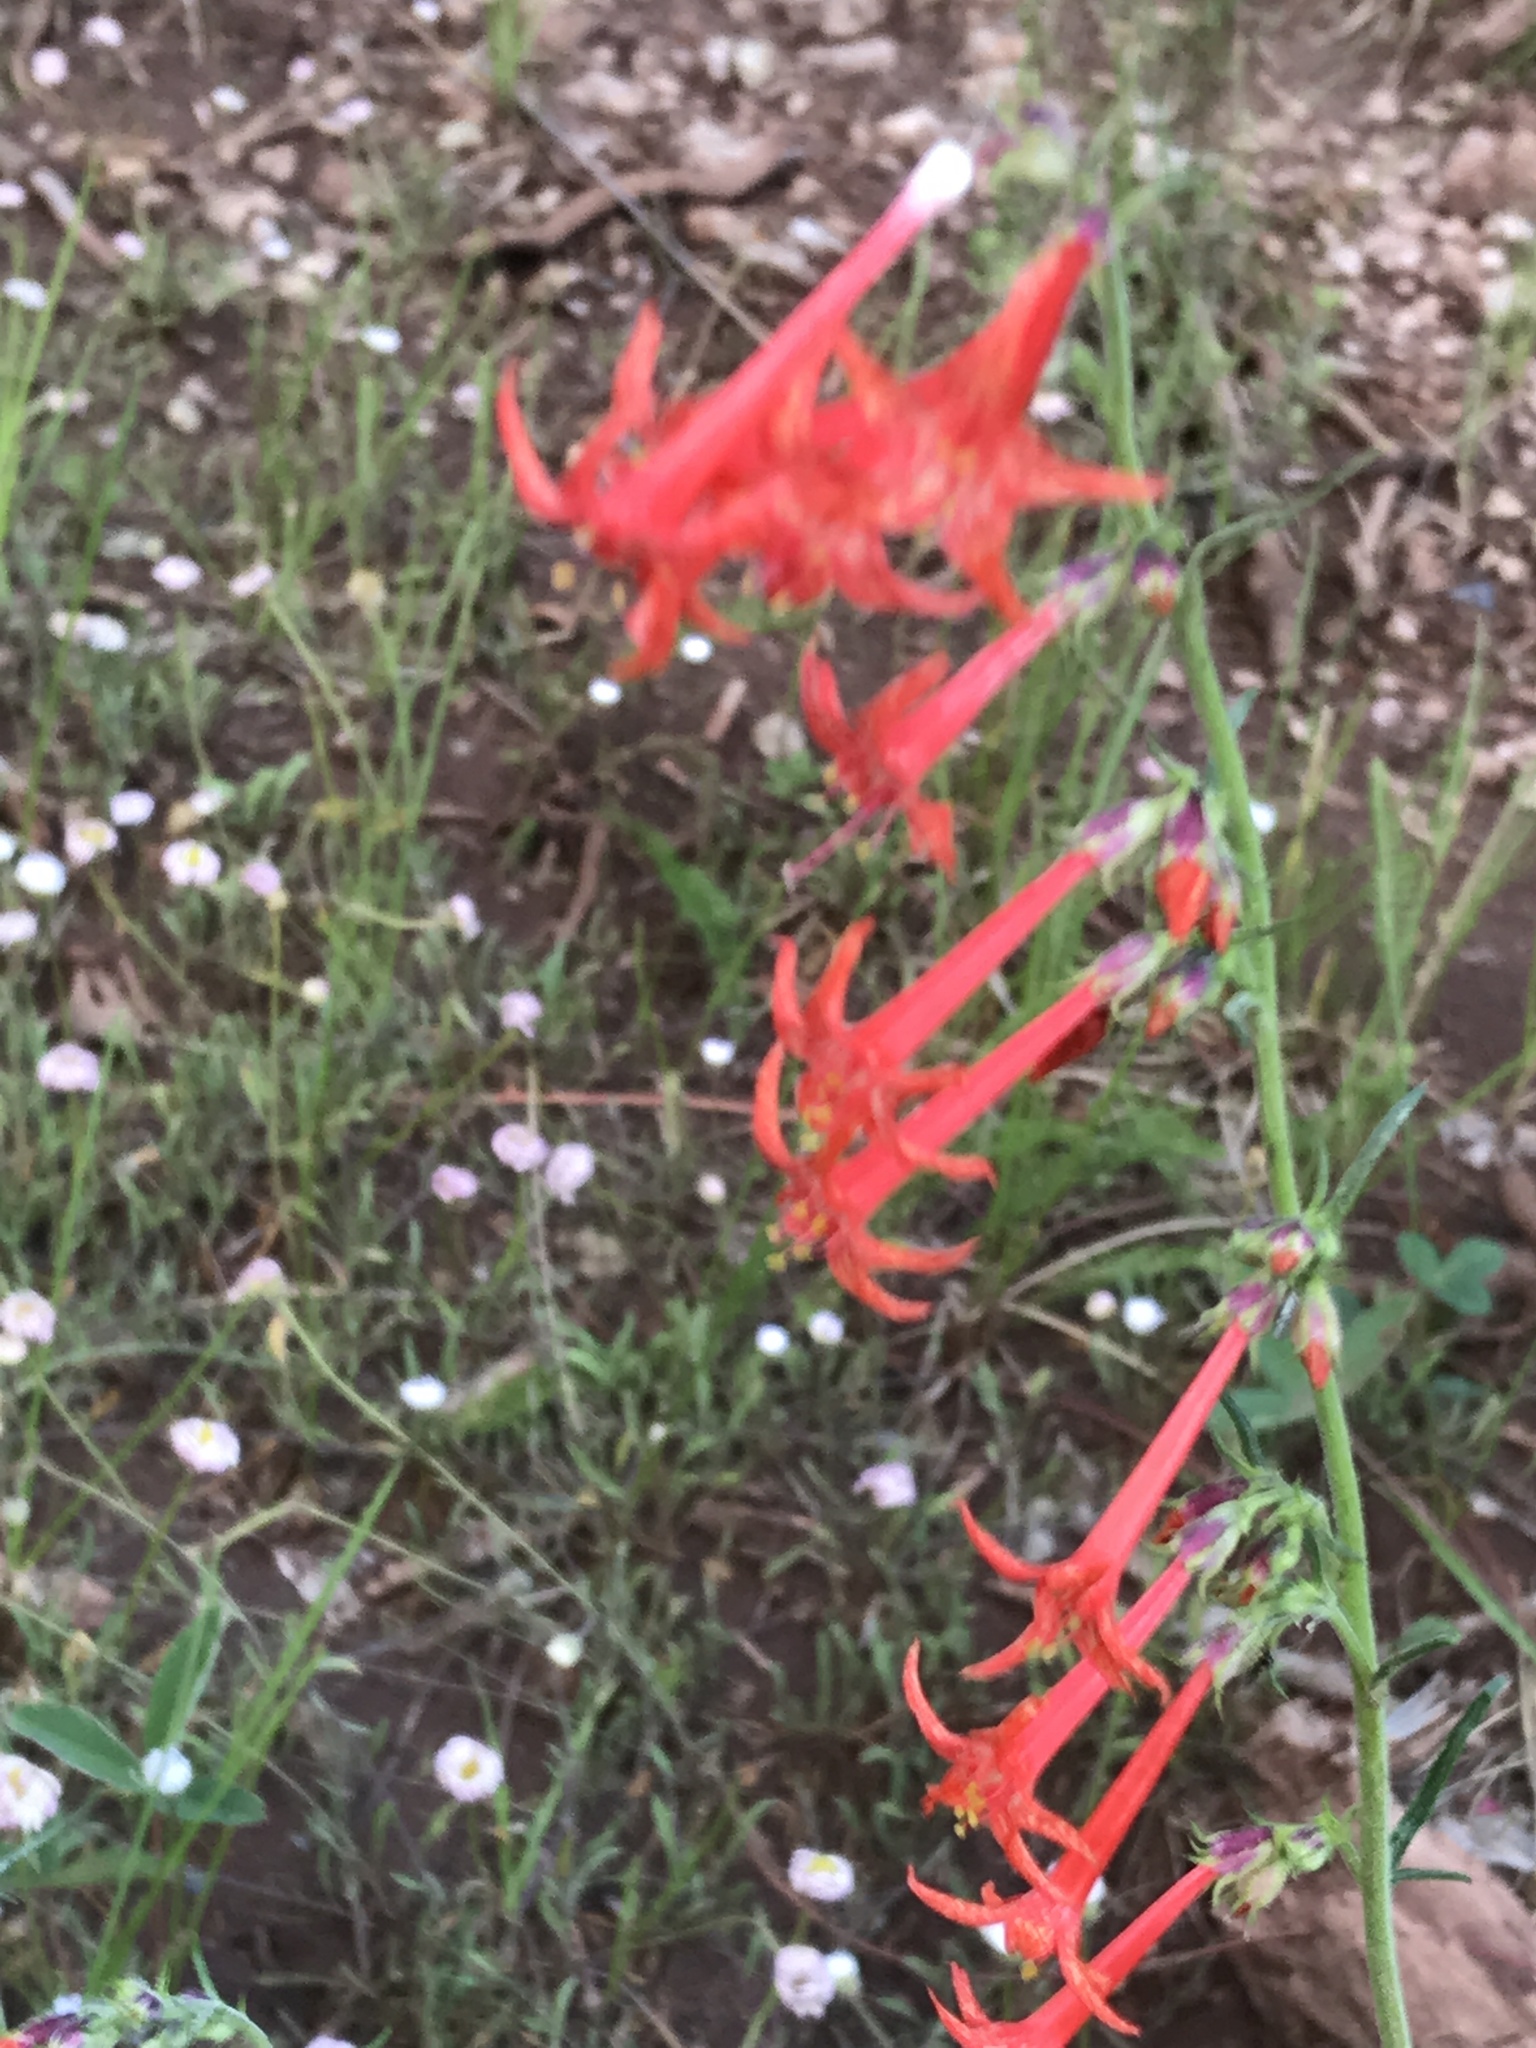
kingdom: Plantae
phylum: Tracheophyta
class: Magnoliopsida
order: Ericales
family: Polemoniaceae
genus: Ipomopsis
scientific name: Ipomopsis aggregata
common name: Scarlet gilia
